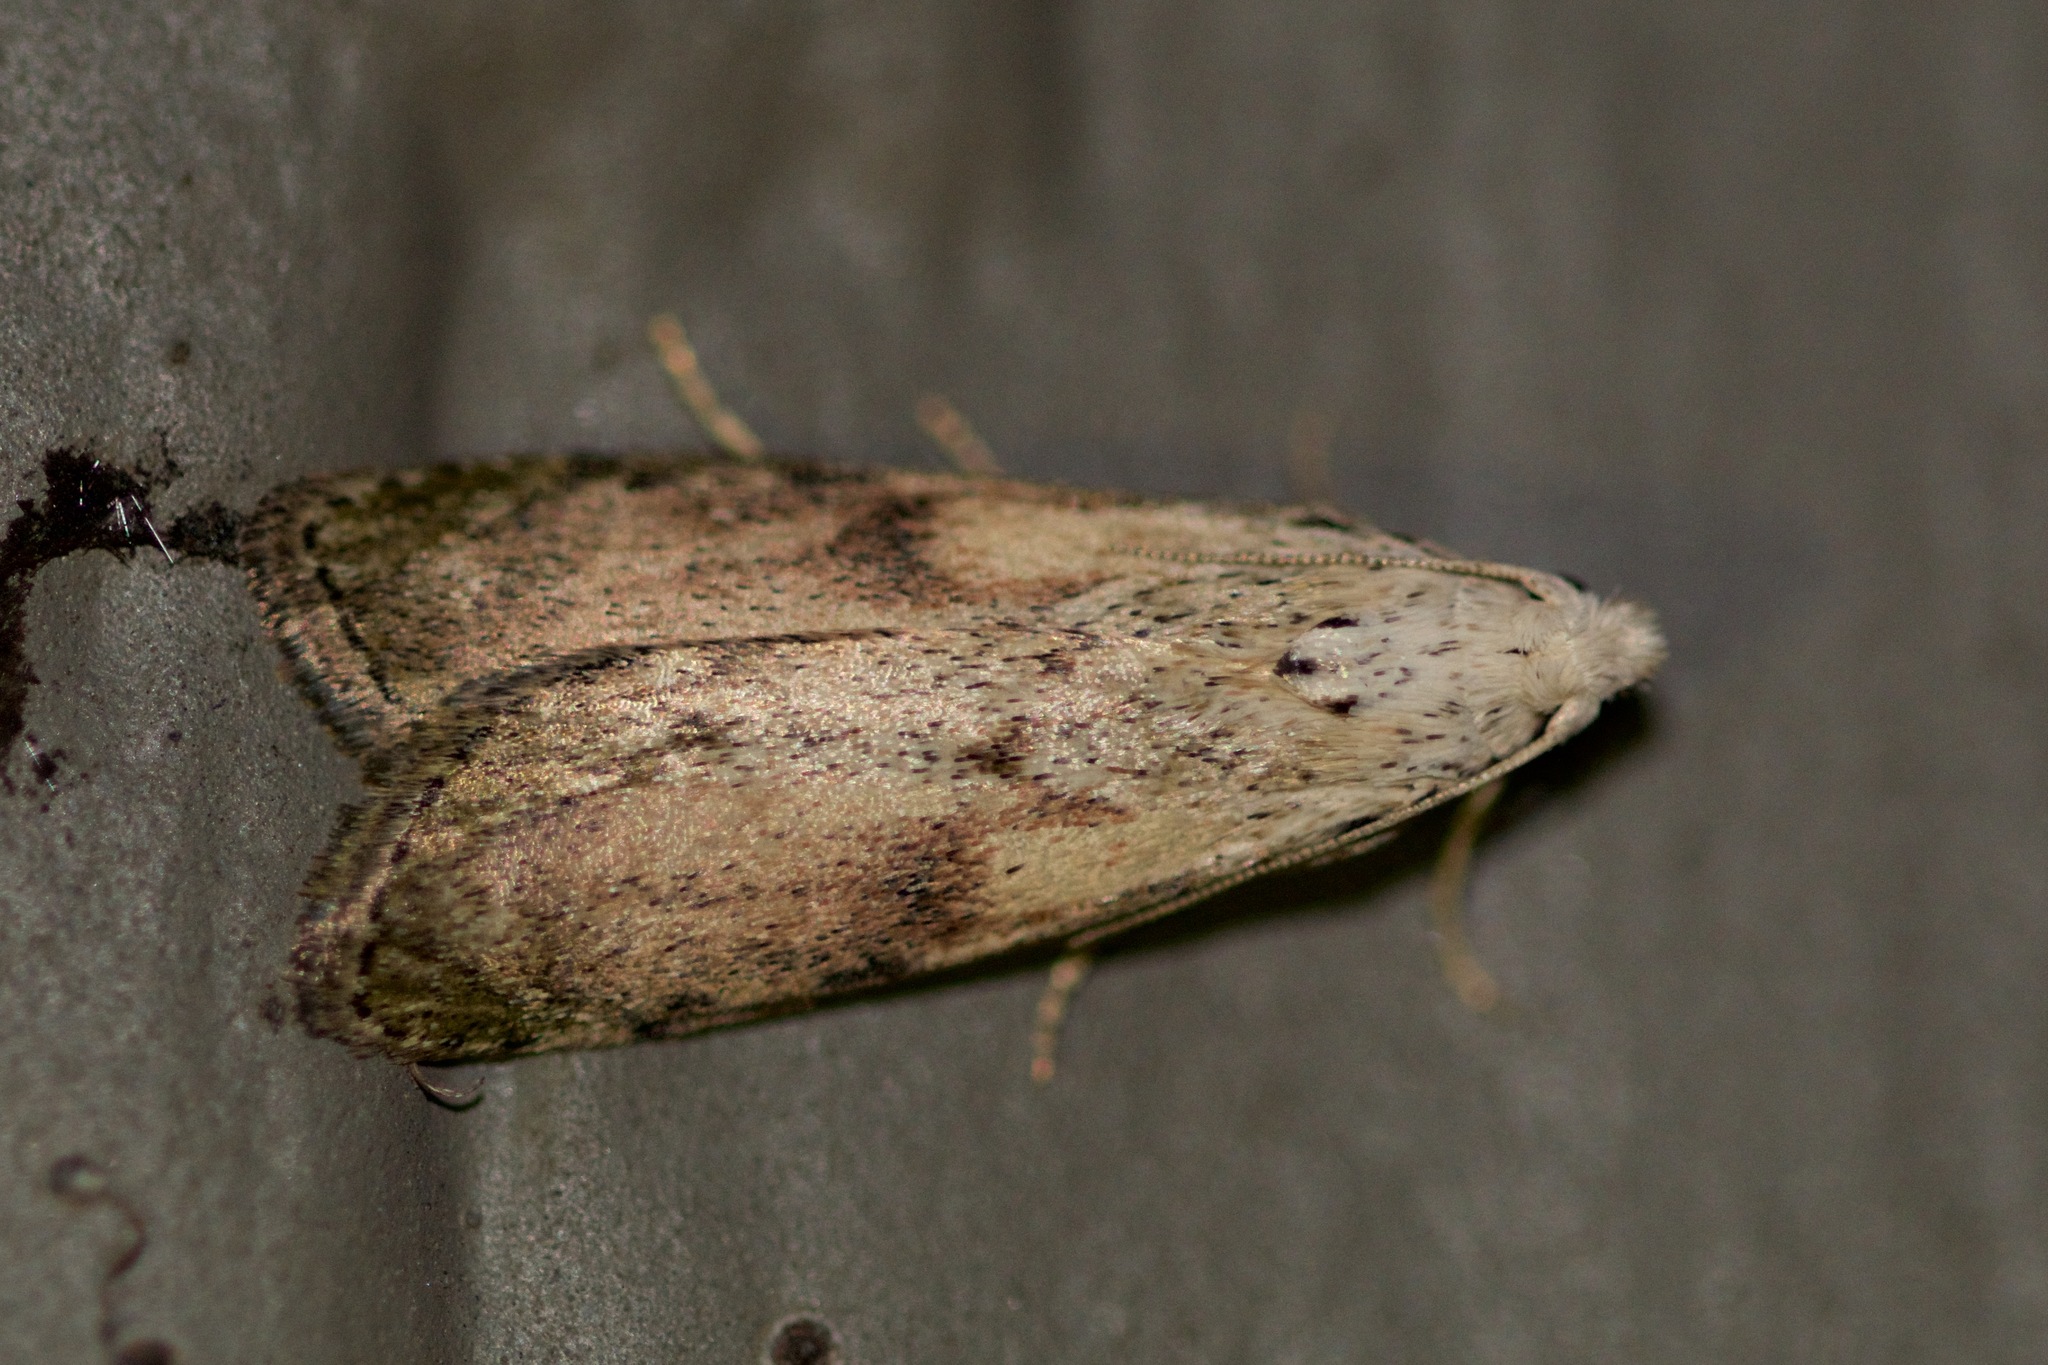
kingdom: Animalia
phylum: Arthropoda
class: Insecta
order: Lepidoptera
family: Pyralidae
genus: Aphomia
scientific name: Aphomia sociella
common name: Bee moth
